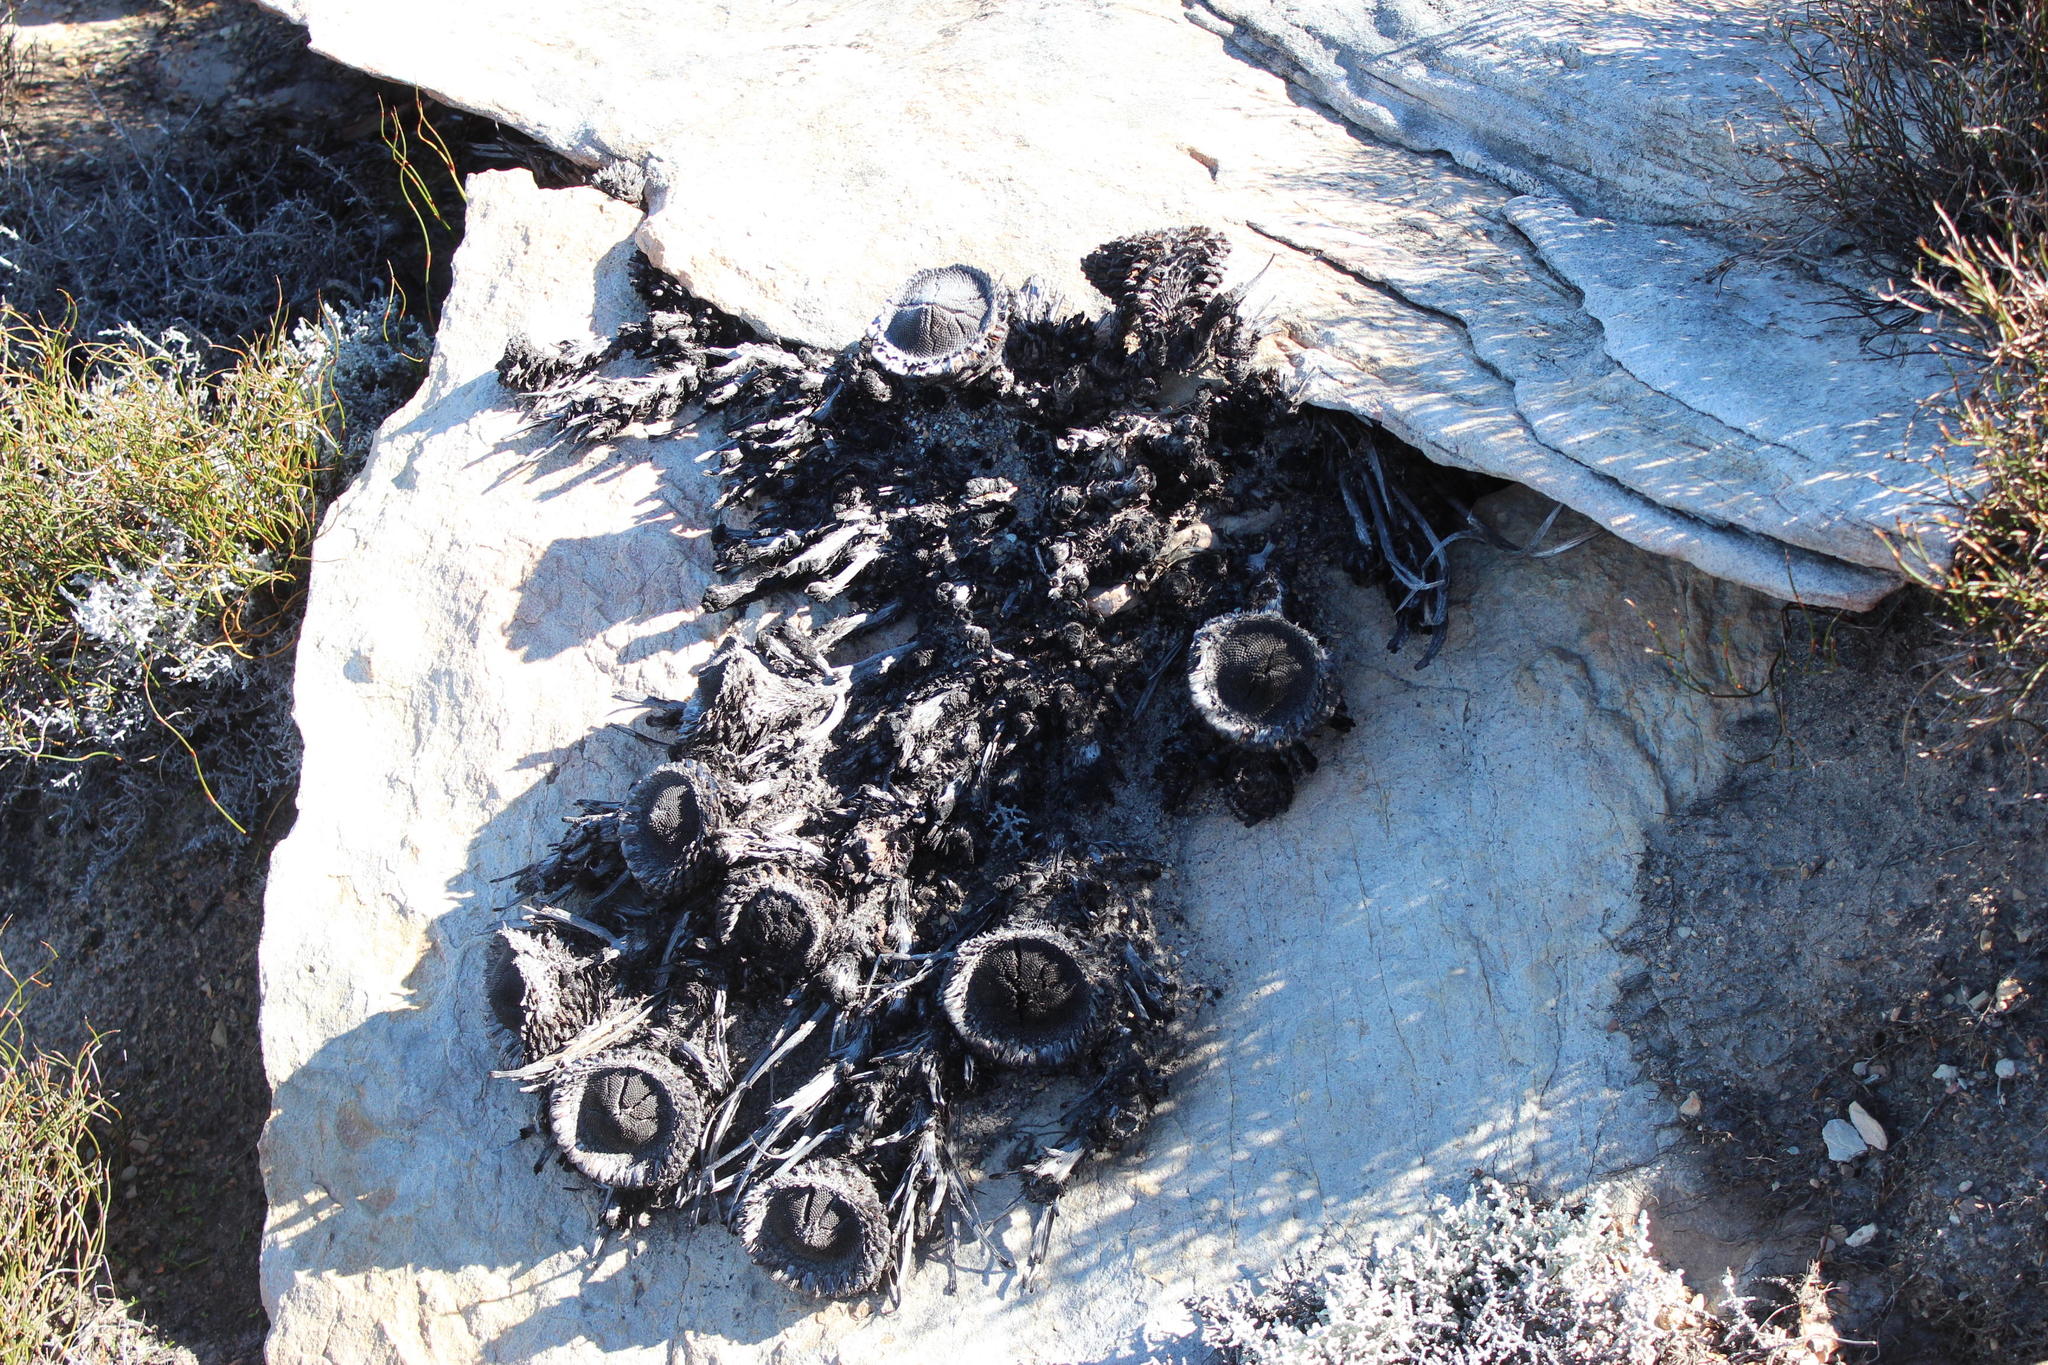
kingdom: Plantae
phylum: Tracheophyta
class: Magnoliopsida
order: Proteales
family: Proteaceae
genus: Protea
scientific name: Protea cryophila
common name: Snow protea
